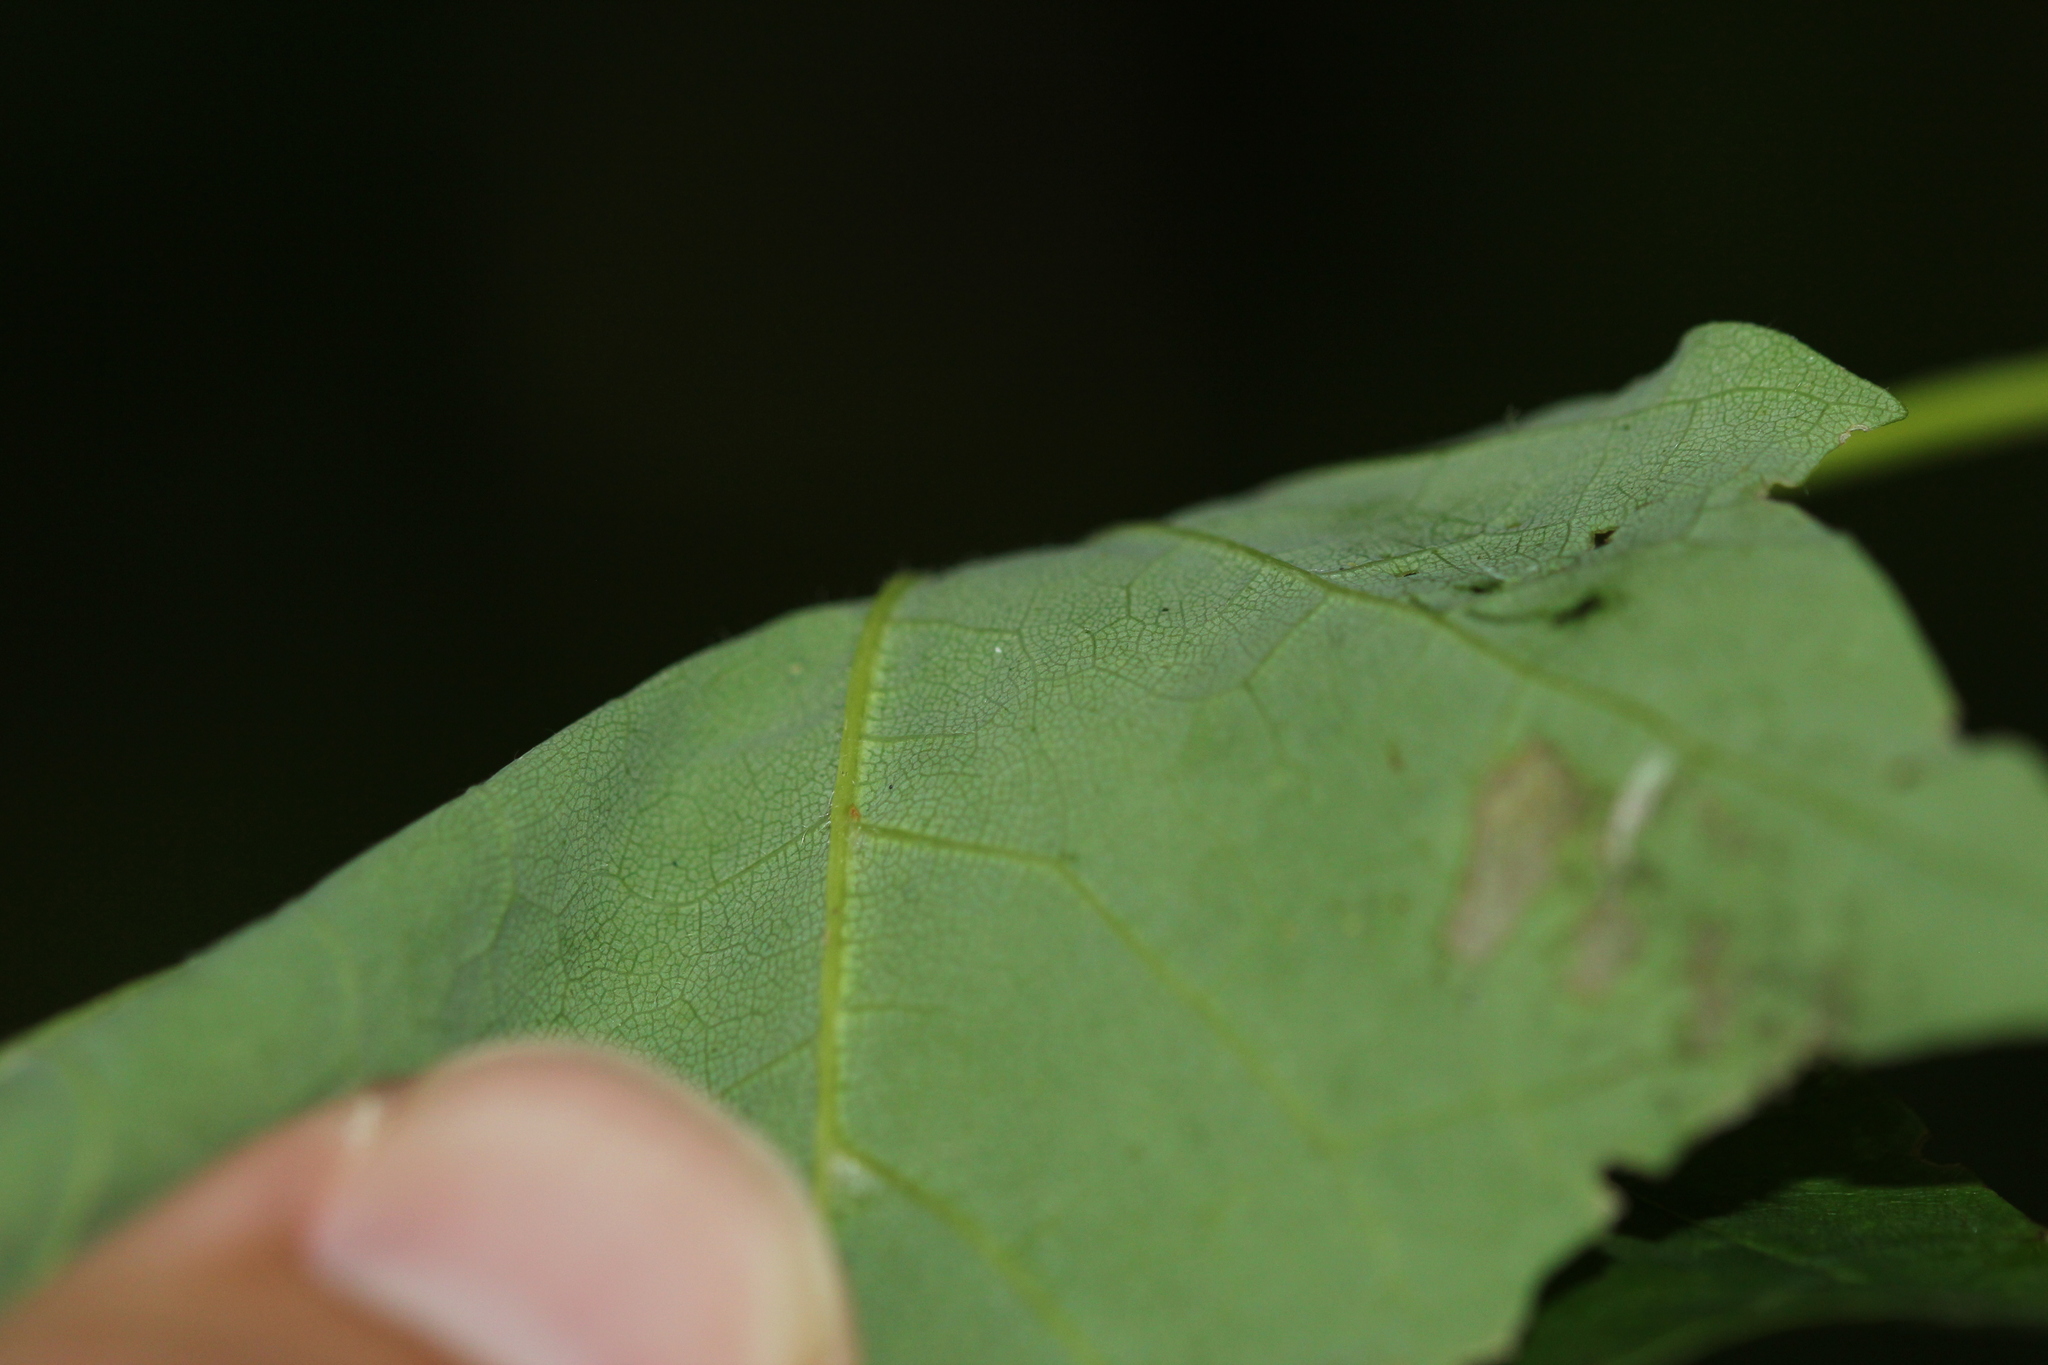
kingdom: Plantae
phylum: Tracheophyta
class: Magnoliopsida
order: Sapindales
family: Sapindaceae
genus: Acer
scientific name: Acer saccharum
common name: Sugar maple
